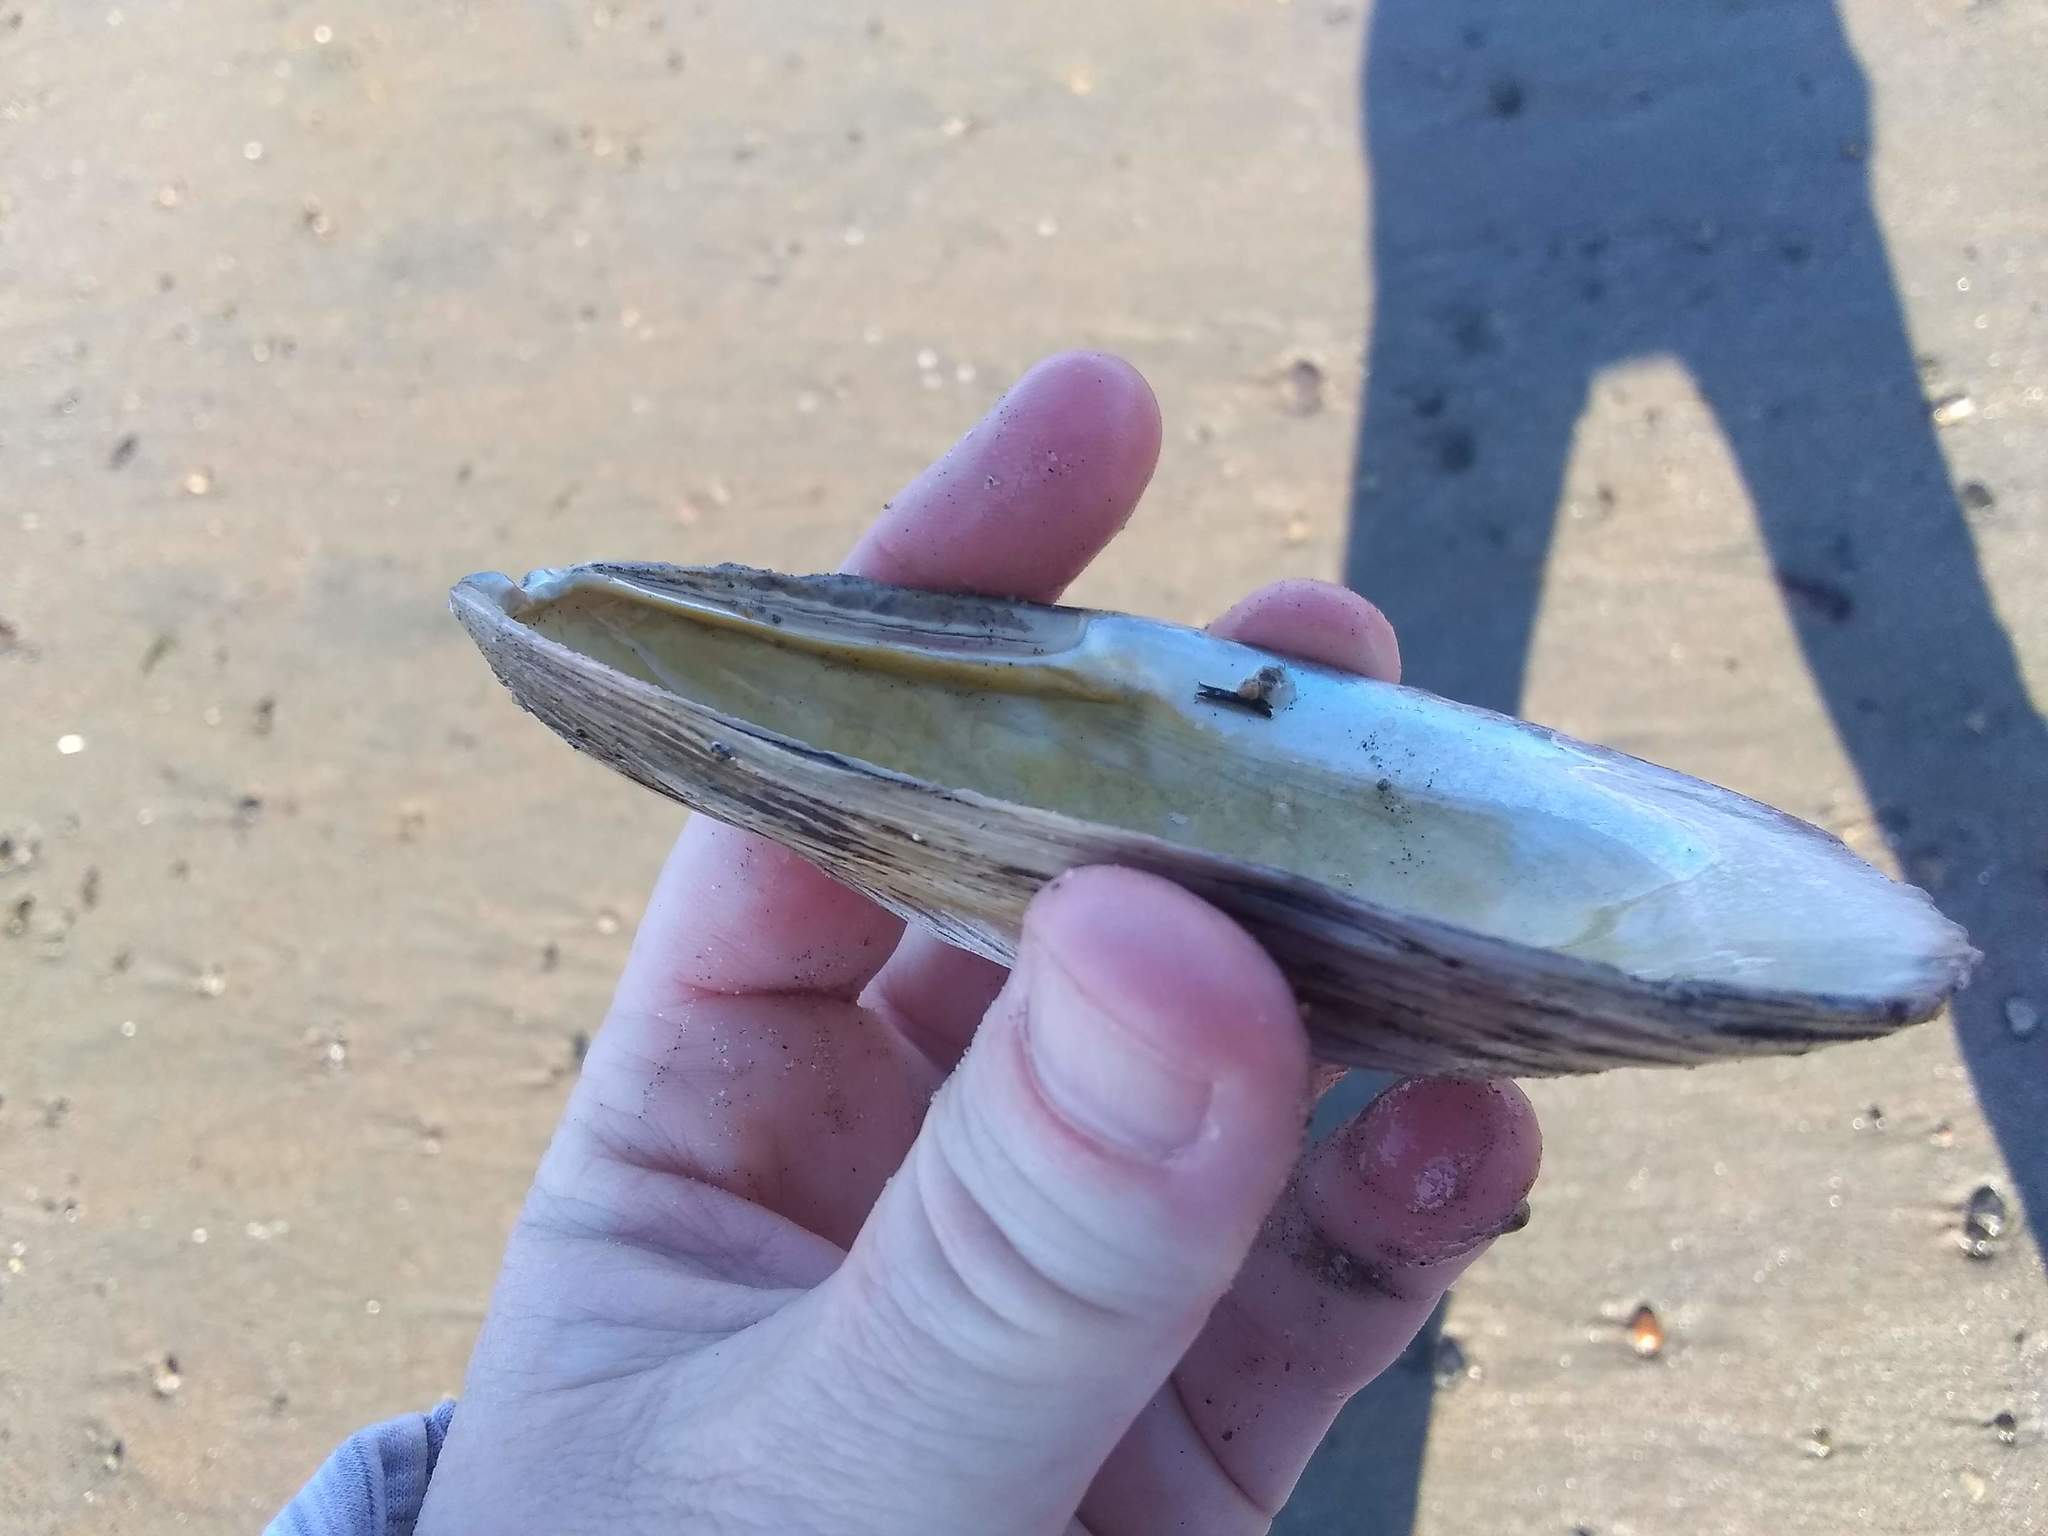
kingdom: Animalia
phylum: Mollusca
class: Bivalvia
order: Mytilida
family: Mytilidae
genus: Mytilus
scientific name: Mytilus edulis
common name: Blue mussel
